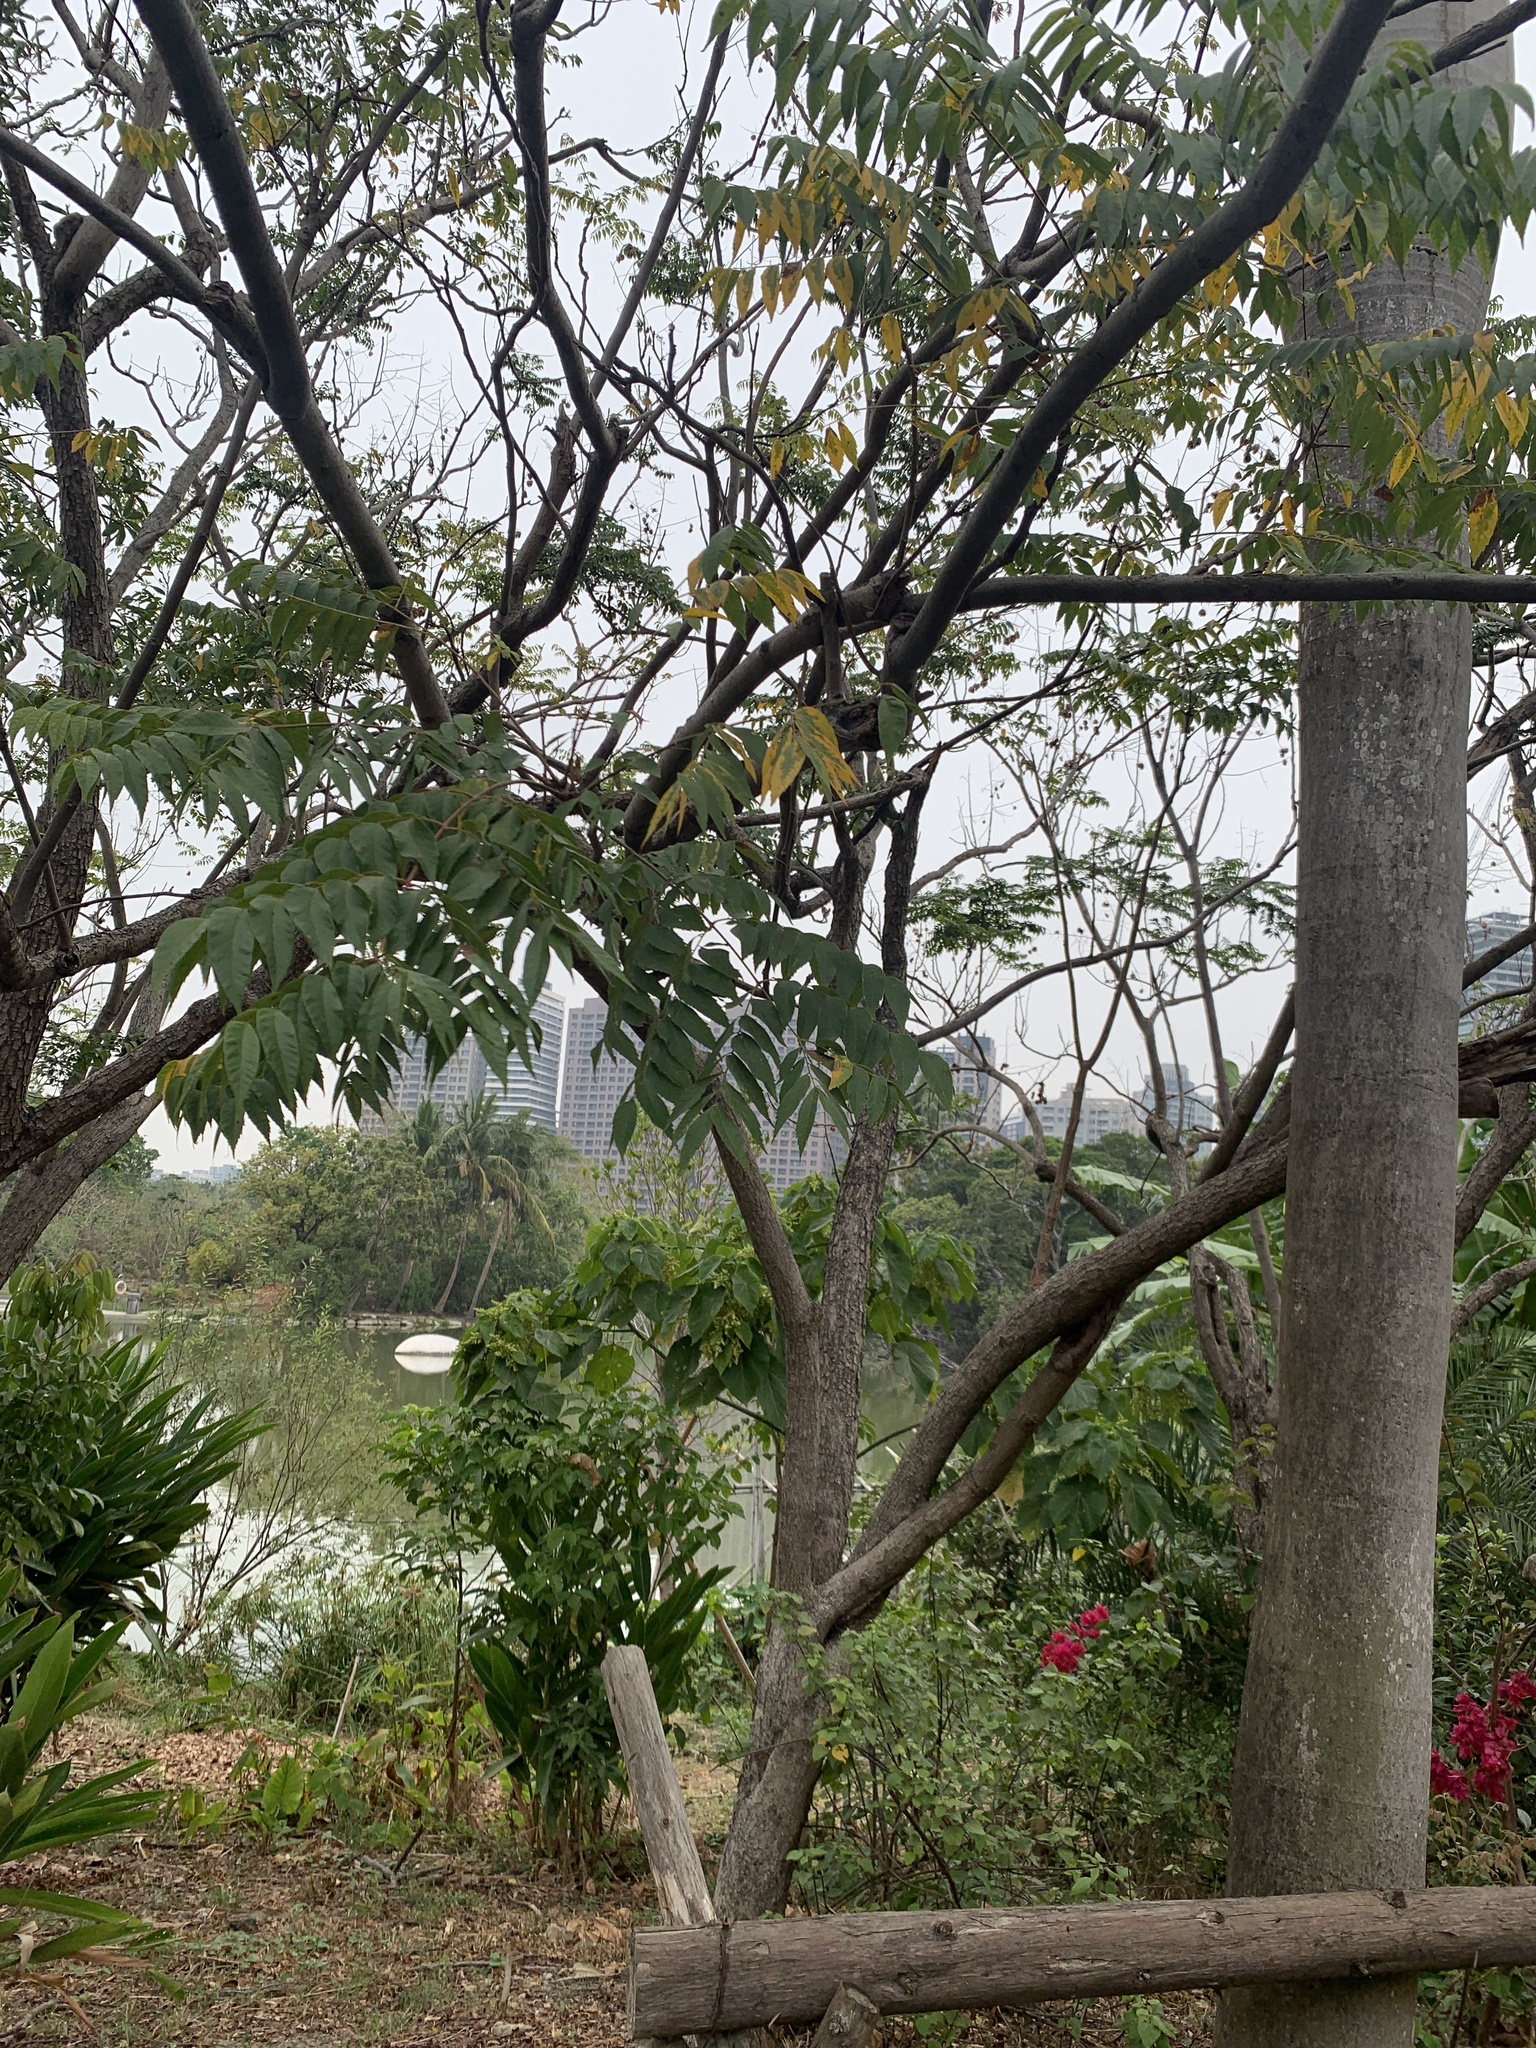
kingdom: Plantae
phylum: Tracheophyta
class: Magnoliopsida
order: Sapindales
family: Sapindaceae
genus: Koelreuteria
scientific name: Koelreuteria elegans
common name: Chinese flame tree
